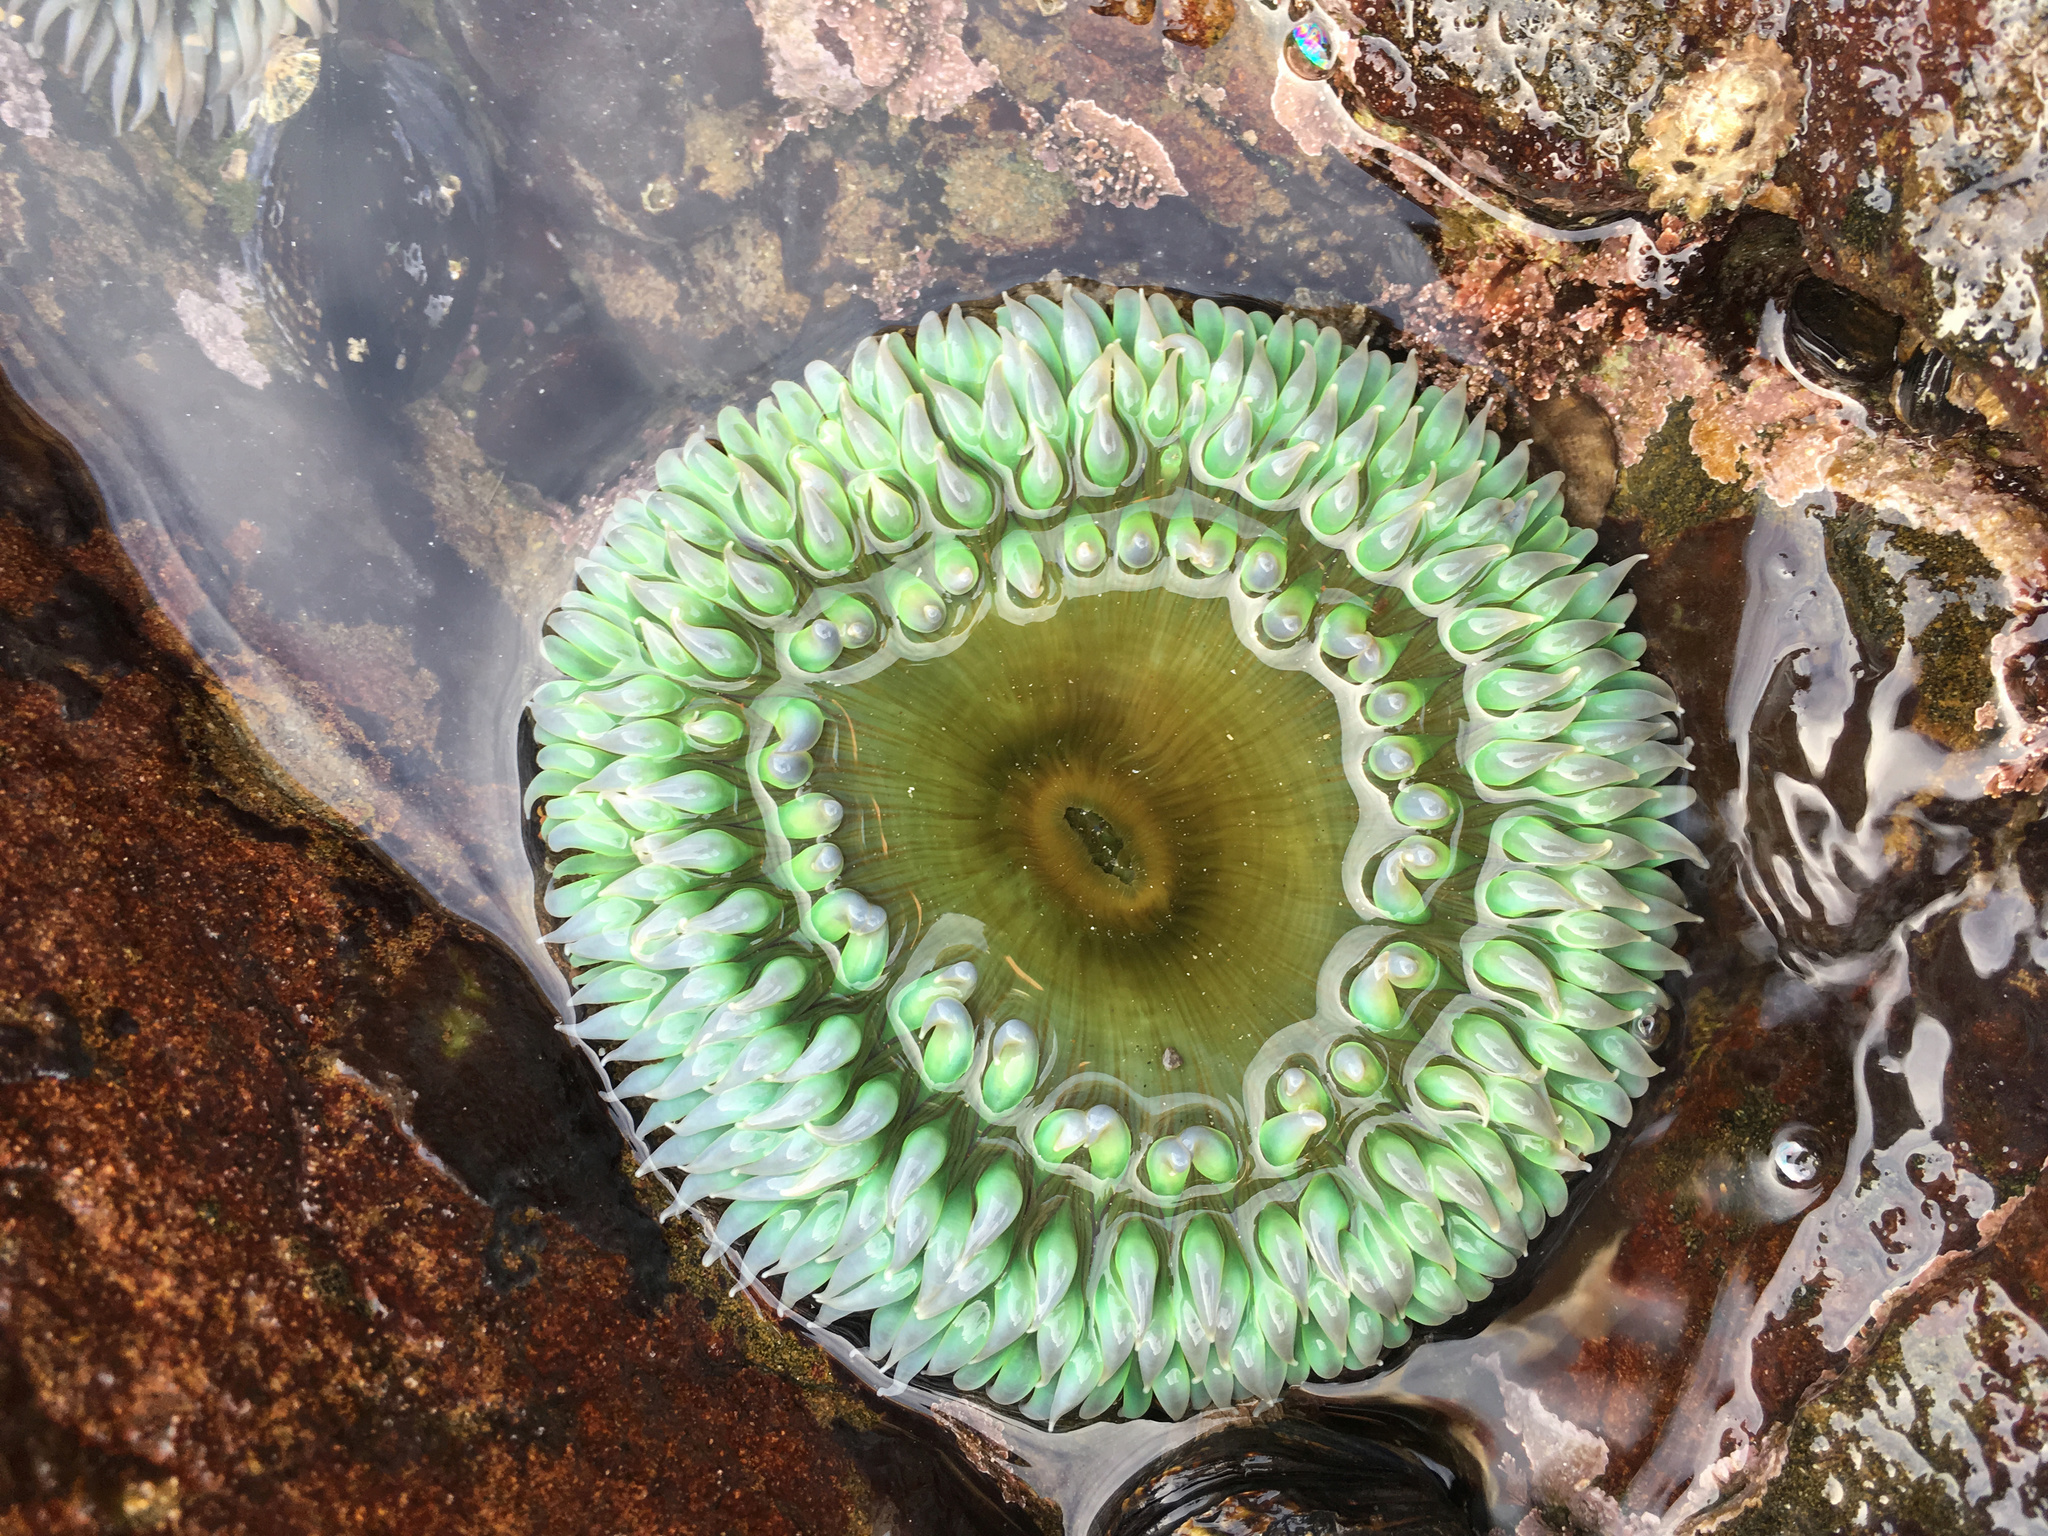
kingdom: Animalia
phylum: Cnidaria
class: Anthozoa
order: Actiniaria
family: Actiniidae
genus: Anthopleura
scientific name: Anthopleura xanthogrammica
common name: Giant green anemone
